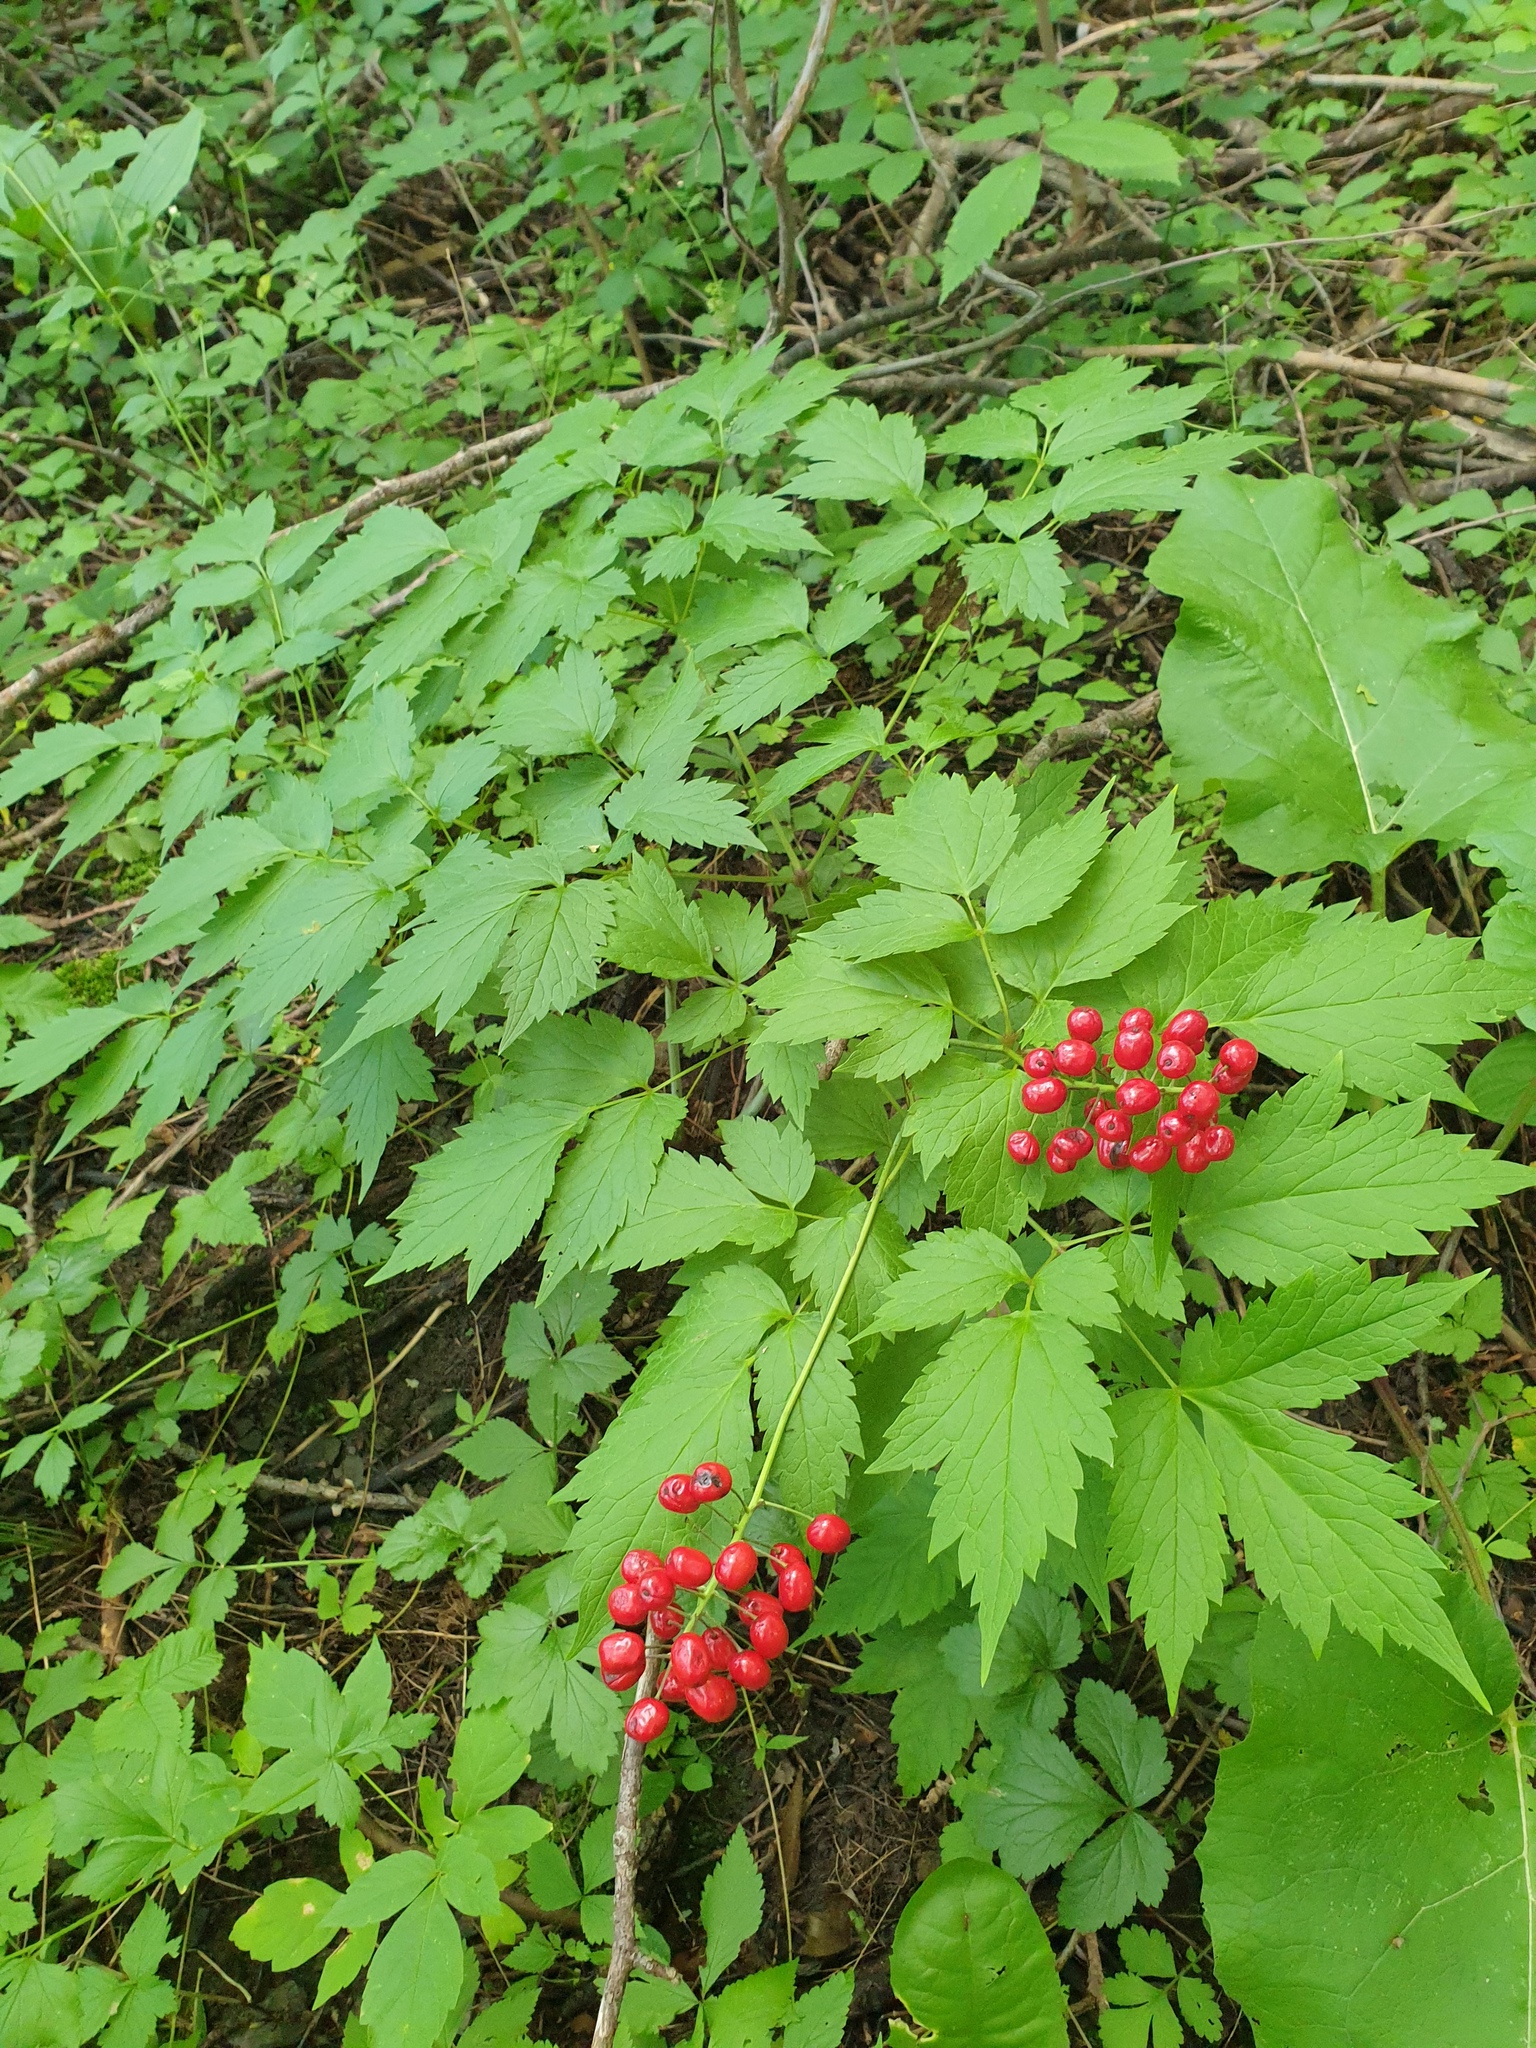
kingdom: Plantae
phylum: Tracheophyta
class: Magnoliopsida
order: Ranunculales
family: Ranunculaceae
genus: Actaea
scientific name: Actaea rubra
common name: Red baneberry
